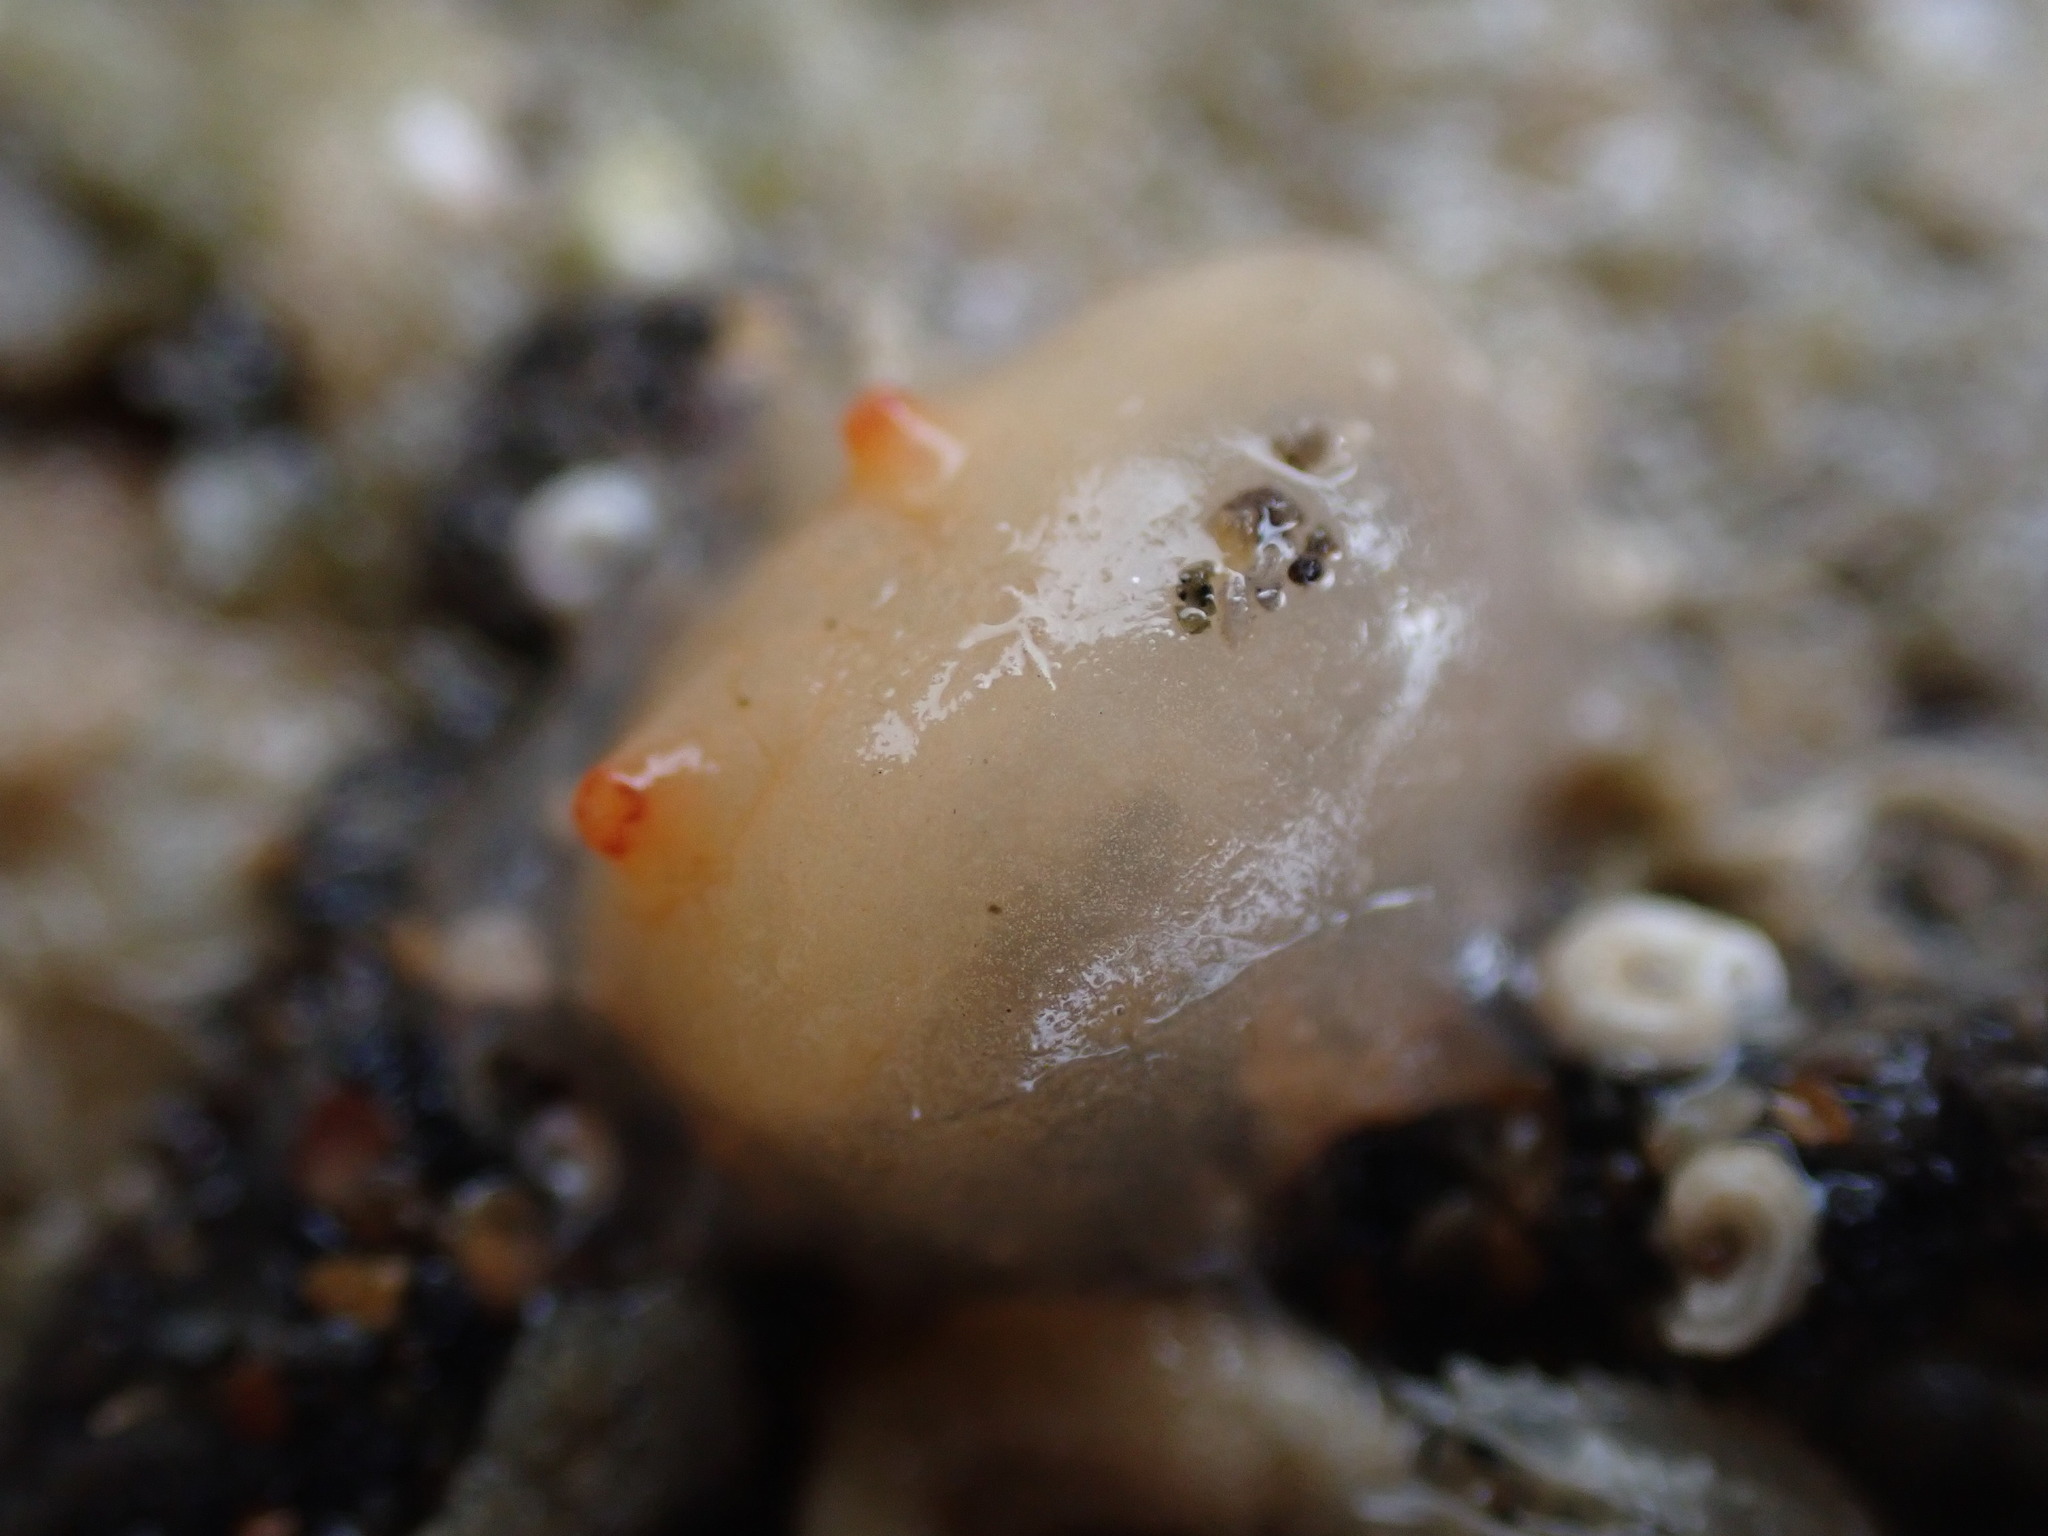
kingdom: Animalia
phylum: Chordata
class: Ascidiacea
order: Phlebobranchia
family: Corellidae
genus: Corella
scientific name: Corella eumyota
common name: Orange-tipped sea squirt
